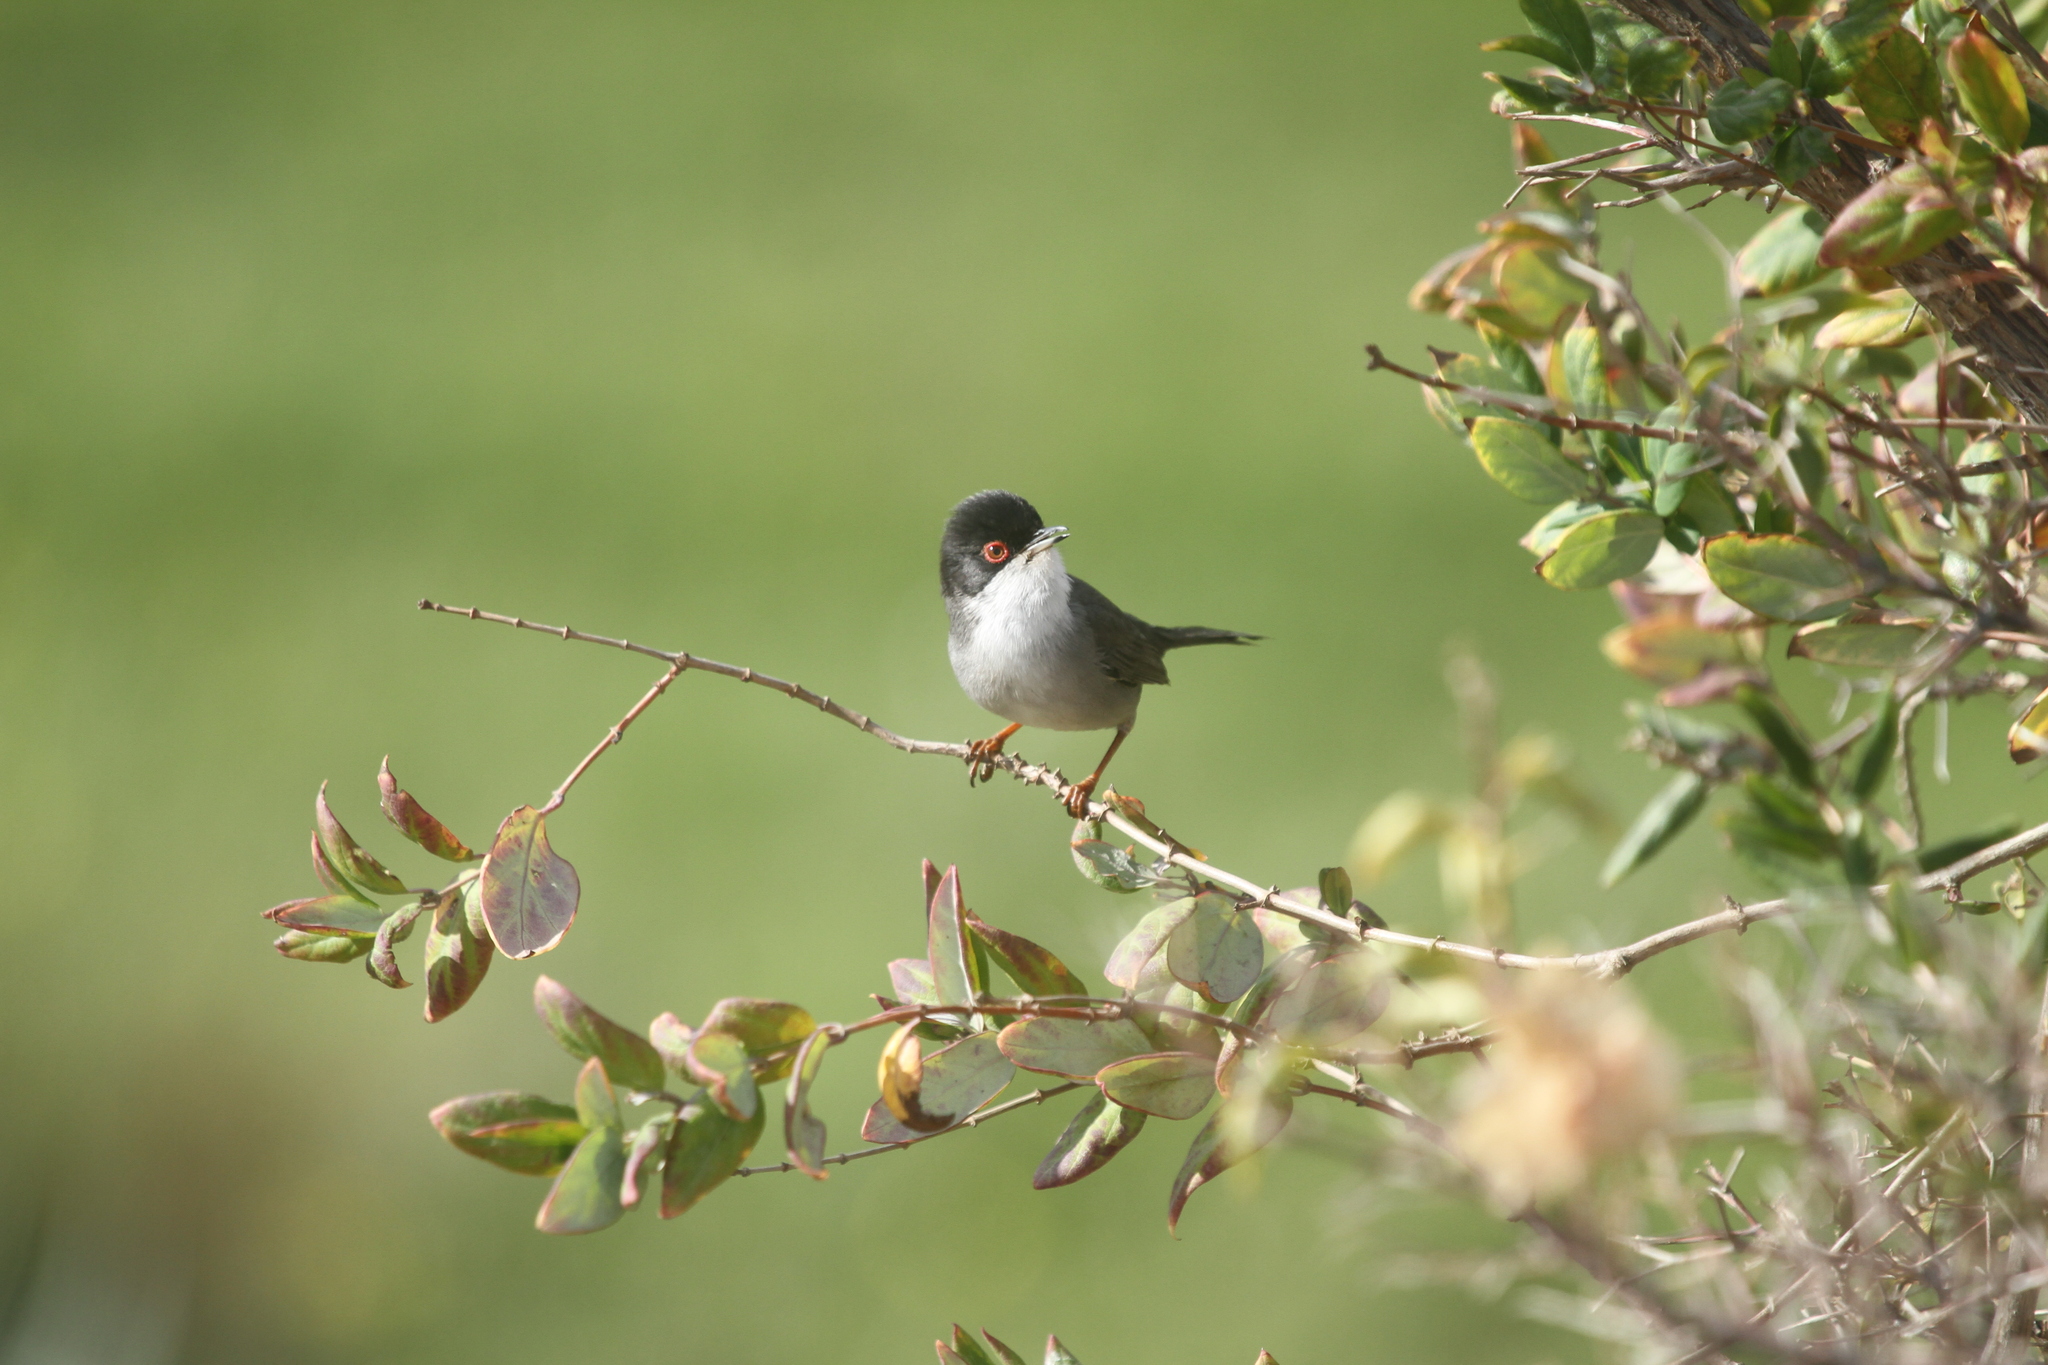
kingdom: Animalia
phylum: Chordata
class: Aves
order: Passeriformes
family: Sylviidae
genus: Curruca
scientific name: Curruca melanocephala
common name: Sardinian warbler
